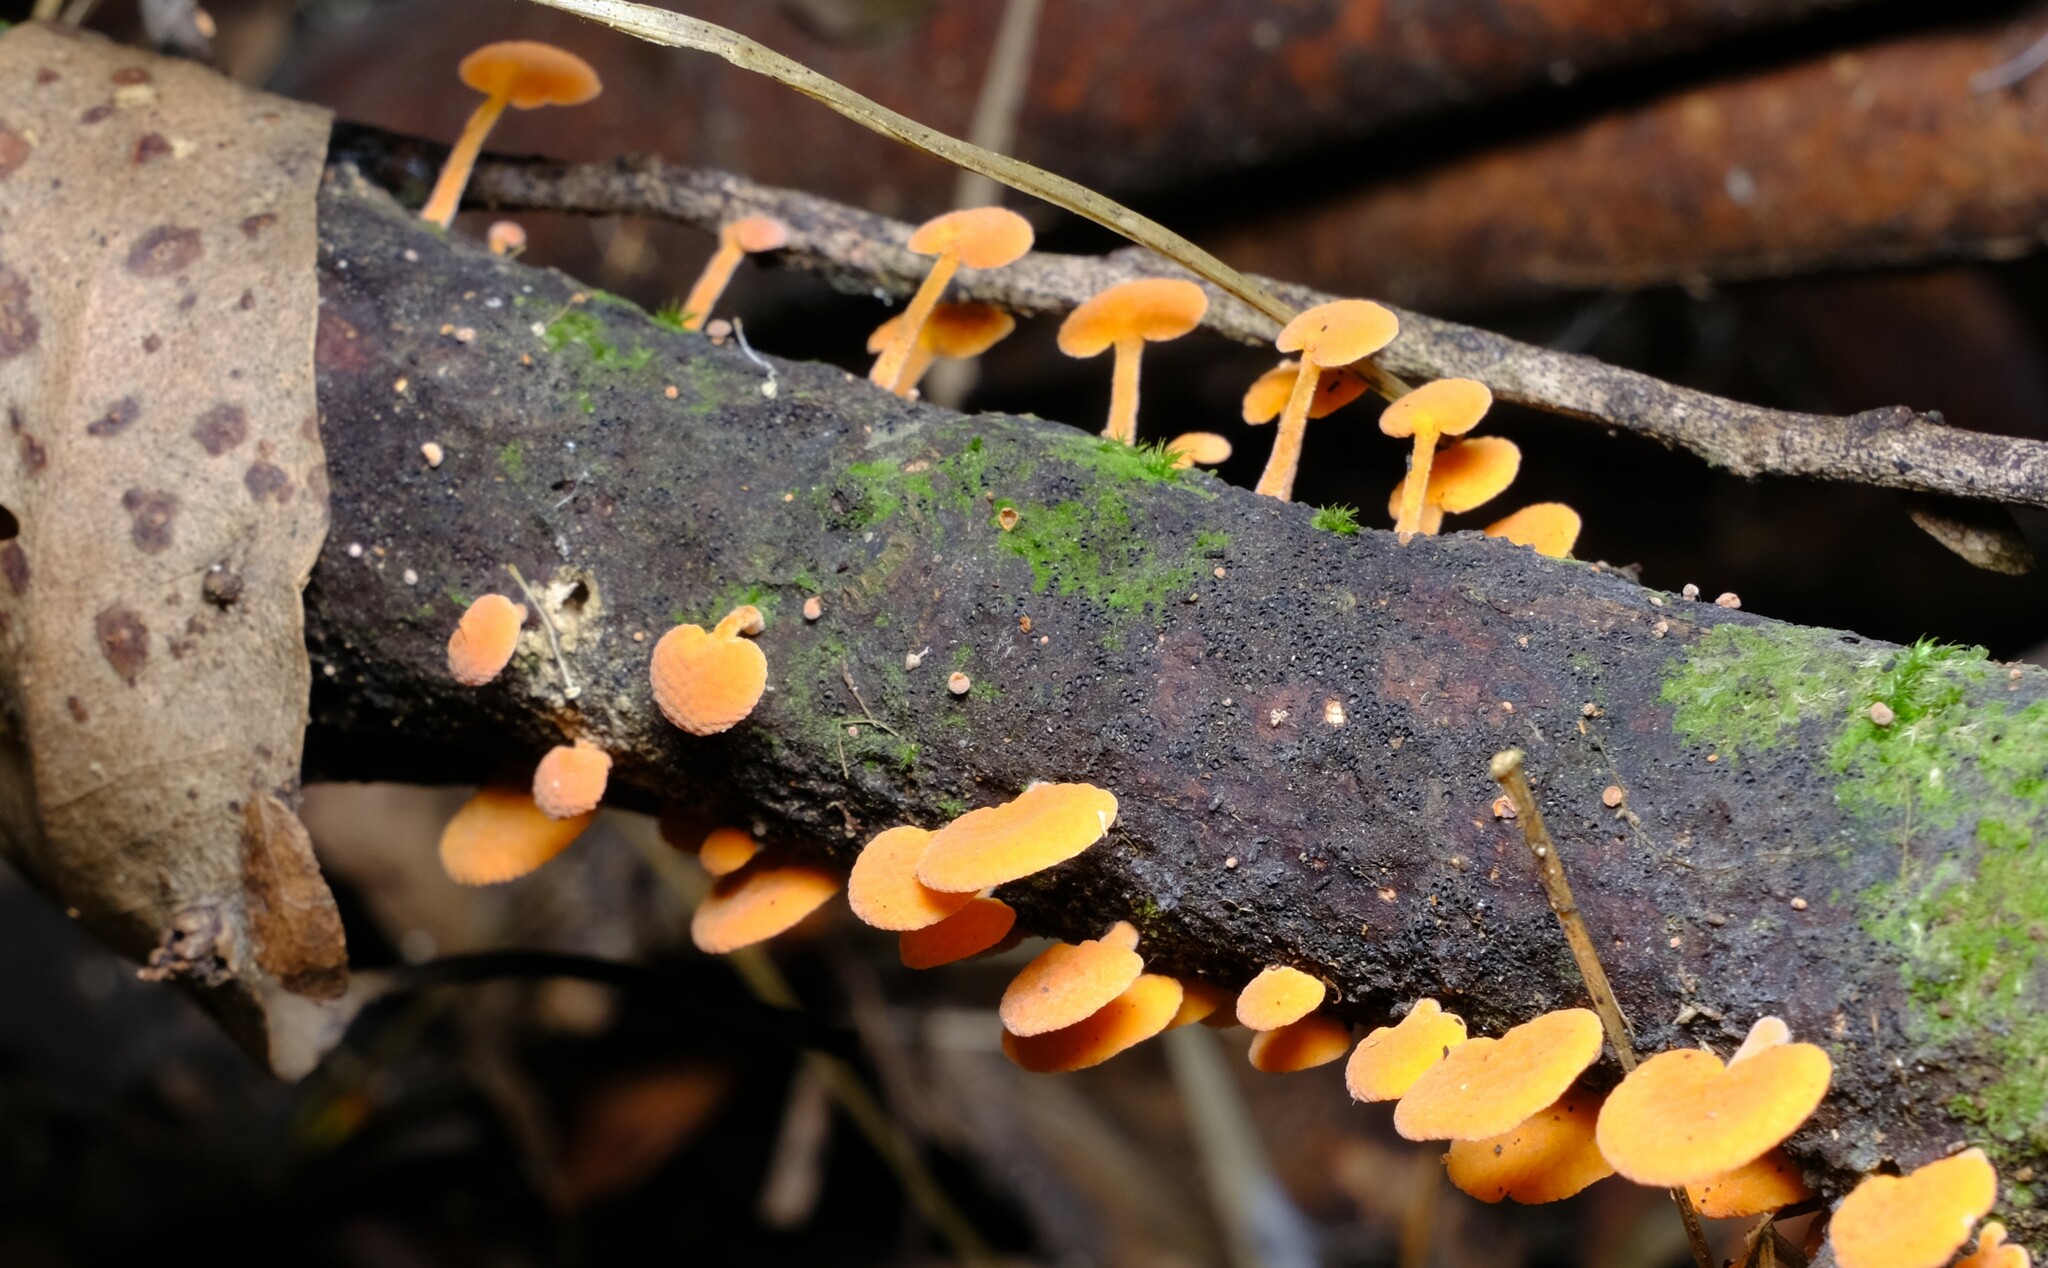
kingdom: Fungi
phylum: Basidiomycota
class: Agaricomycetes
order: Agaricales
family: Mycenaceae
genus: Favolaschia
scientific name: Favolaschia claudopus
